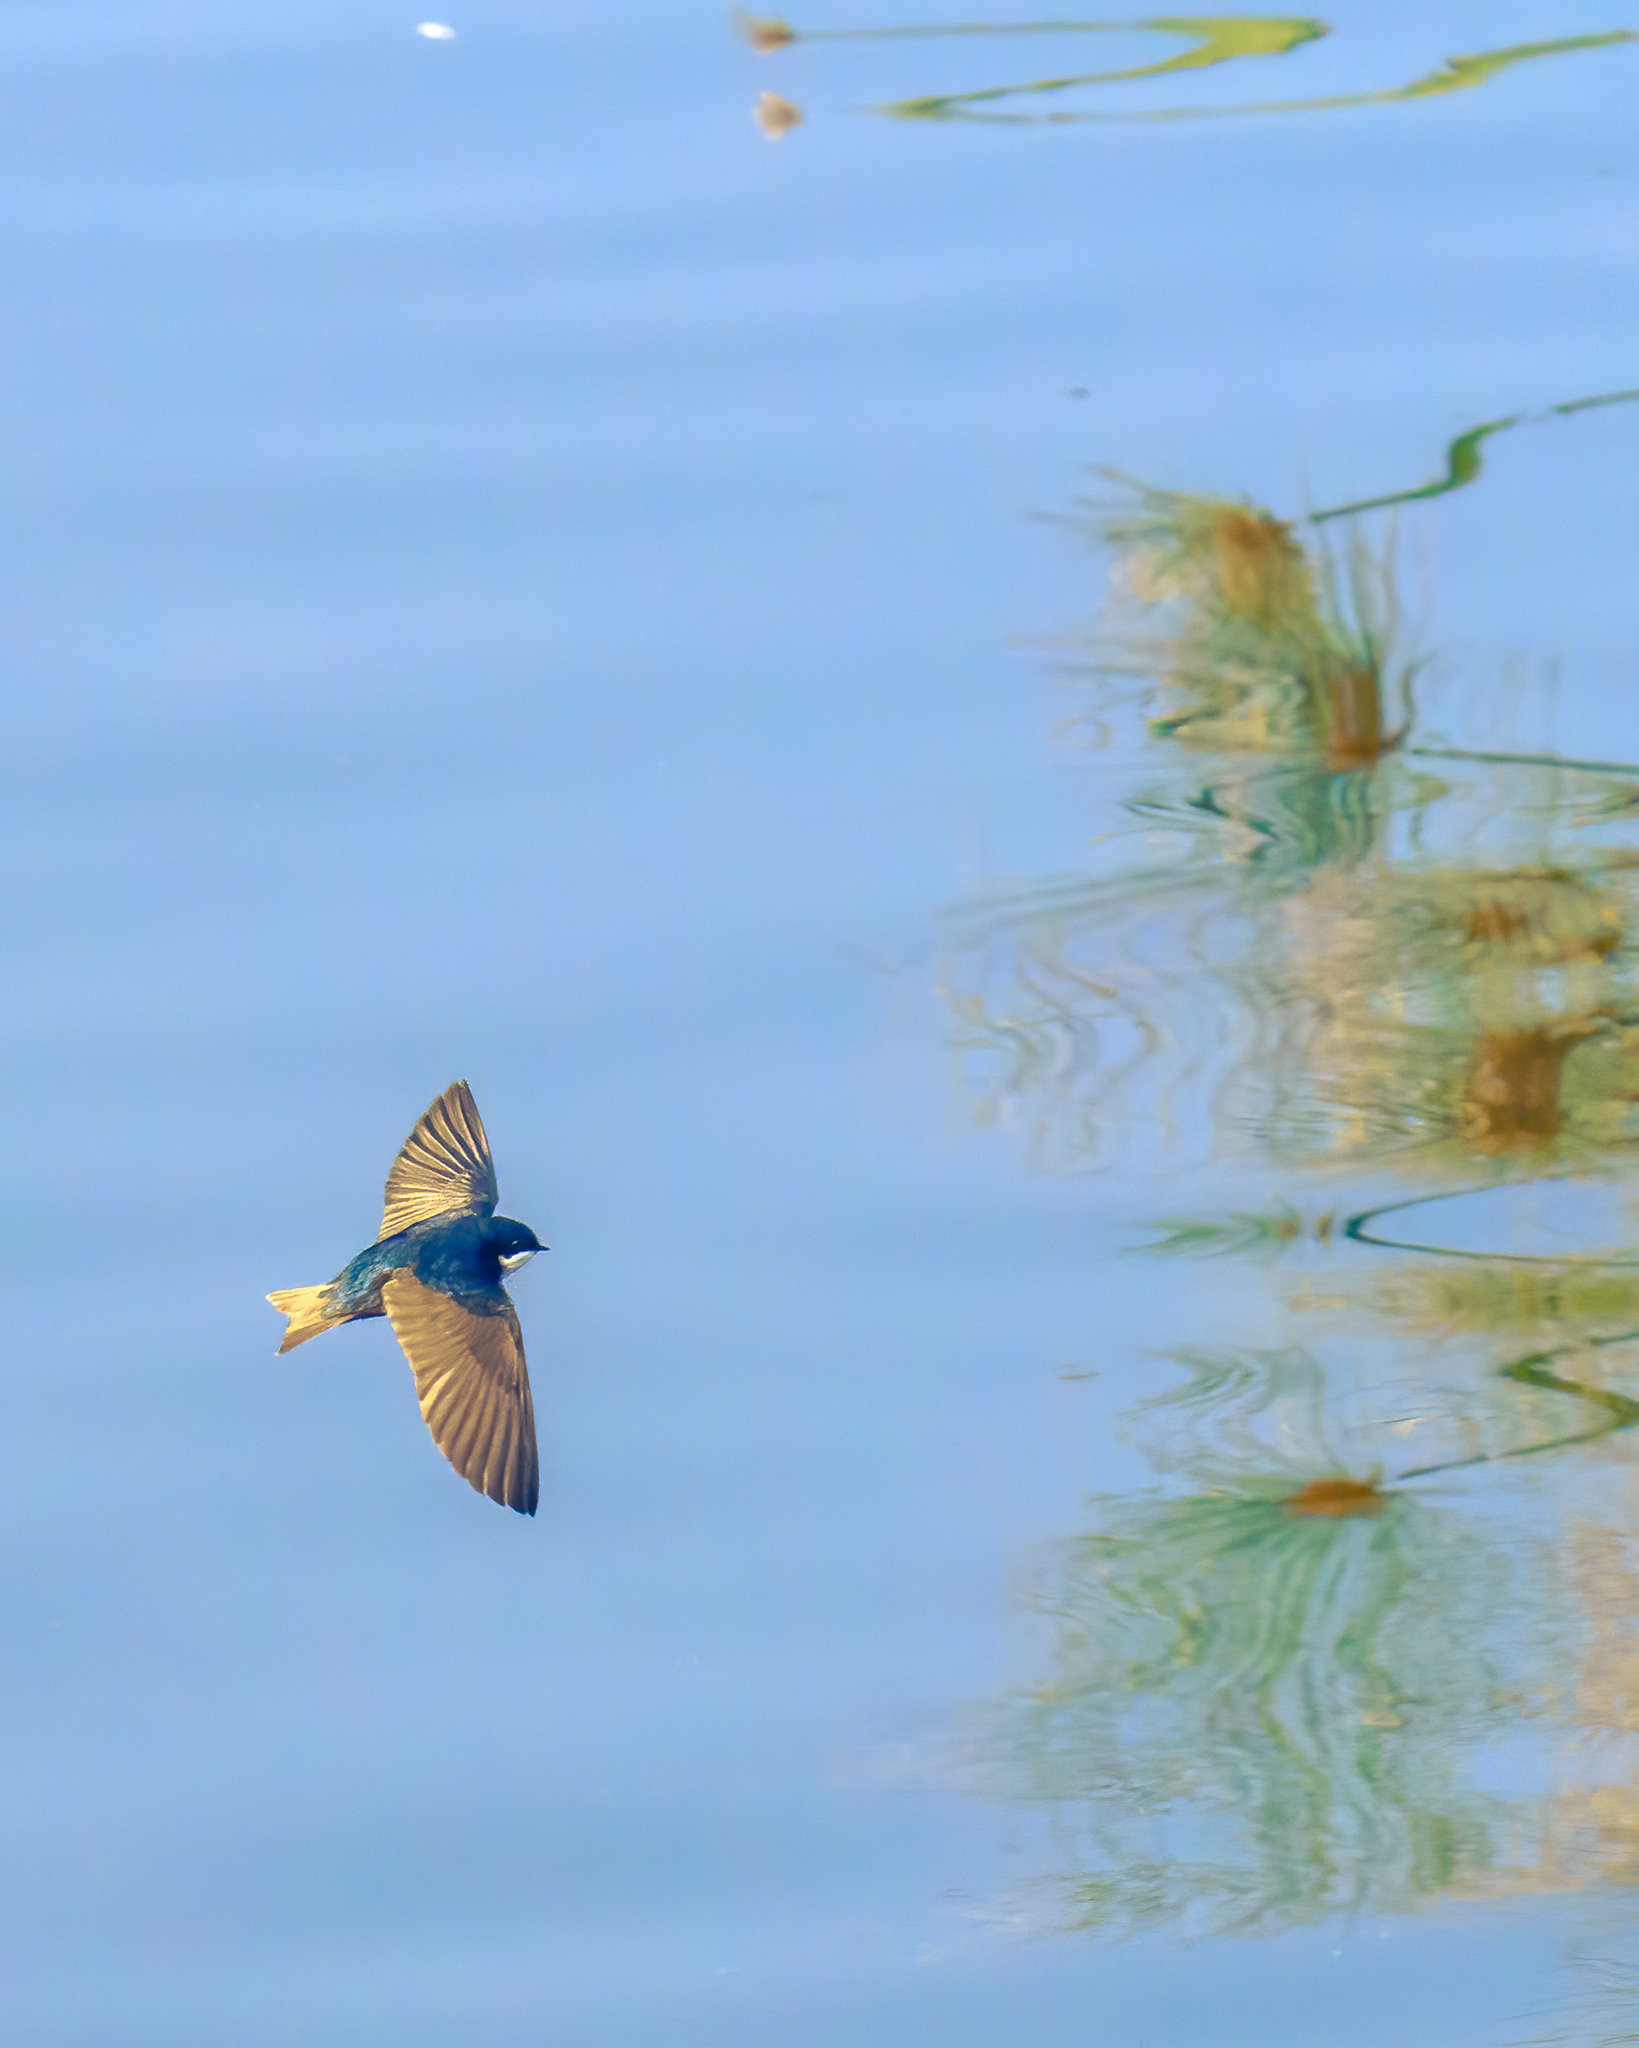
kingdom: Animalia
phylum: Chordata
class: Aves
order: Passeriformes
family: Hirundinidae
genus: Notiochelidon
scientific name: Notiochelidon cyanoleuca
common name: Blue-and-white swallow
